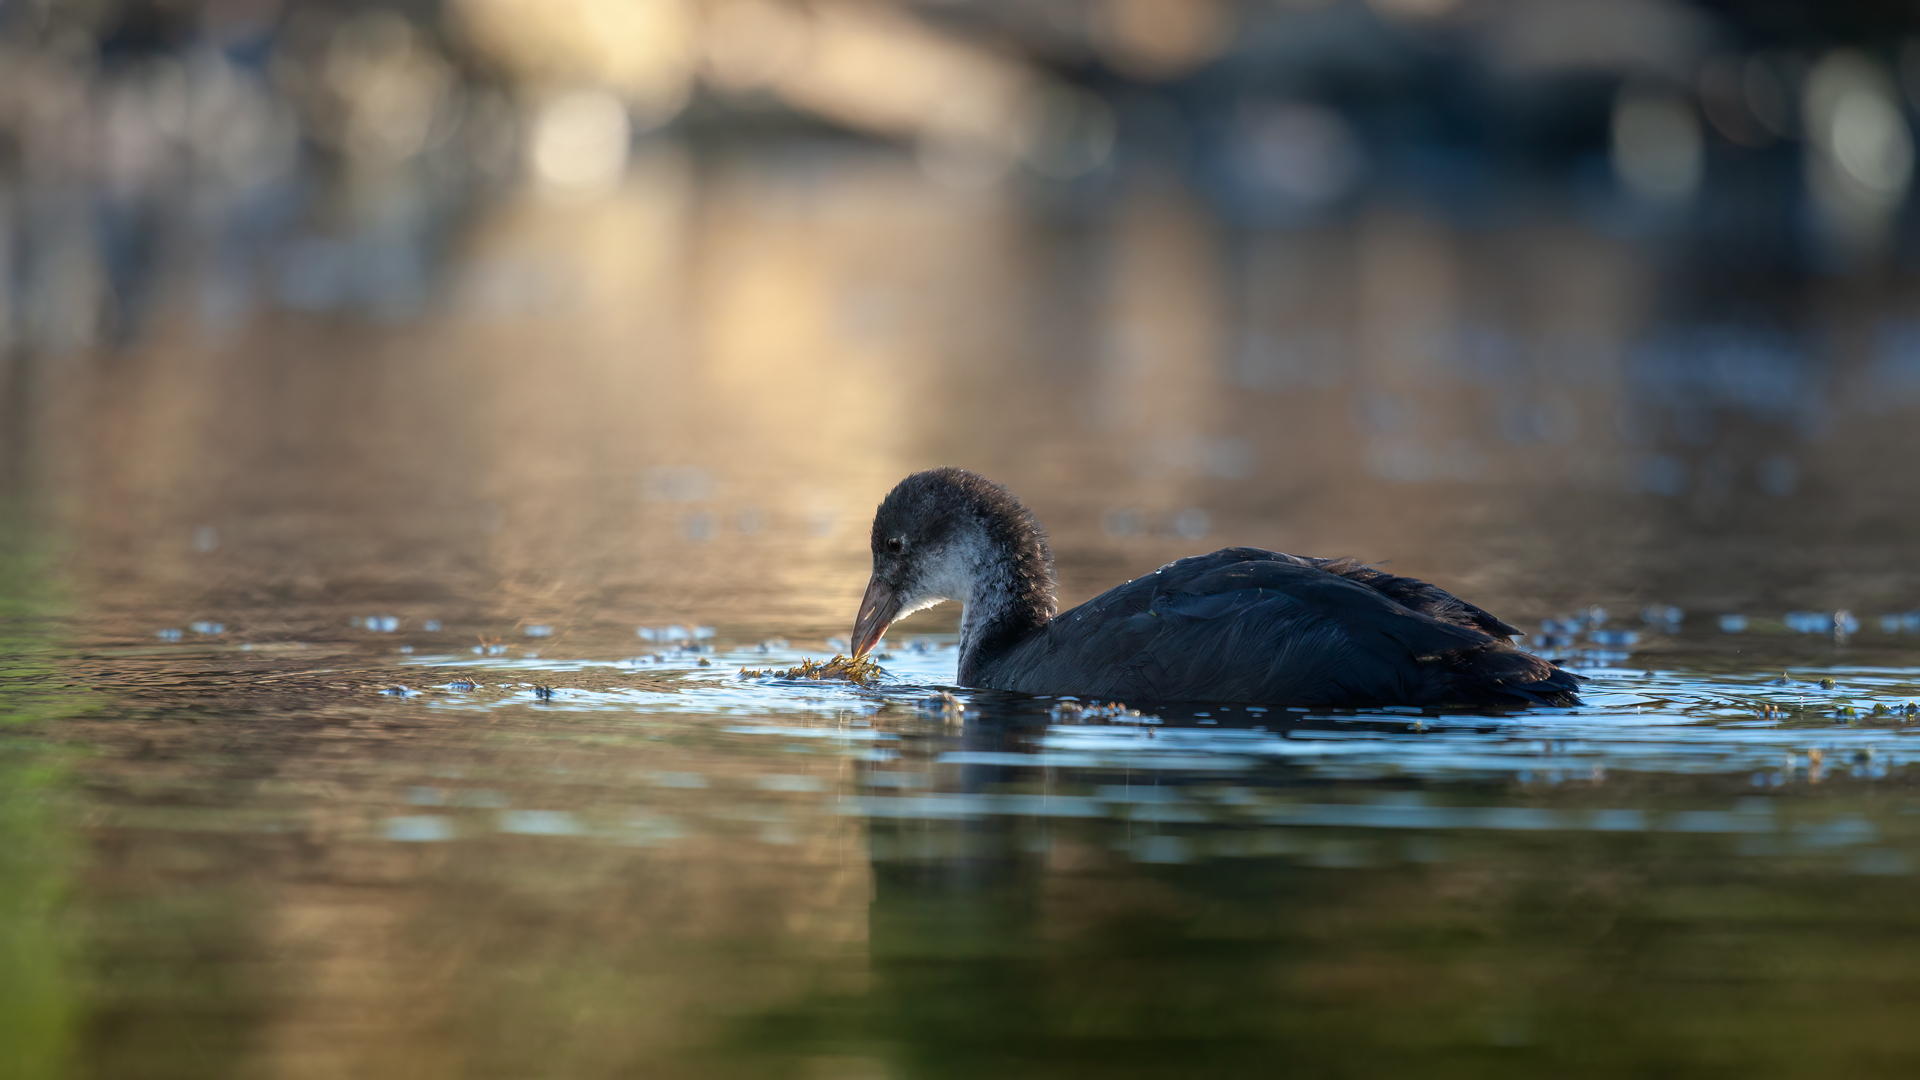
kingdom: Animalia
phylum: Chordata
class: Aves
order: Gruiformes
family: Rallidae
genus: Fulica
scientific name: Fulica atra
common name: Eurasian coot
